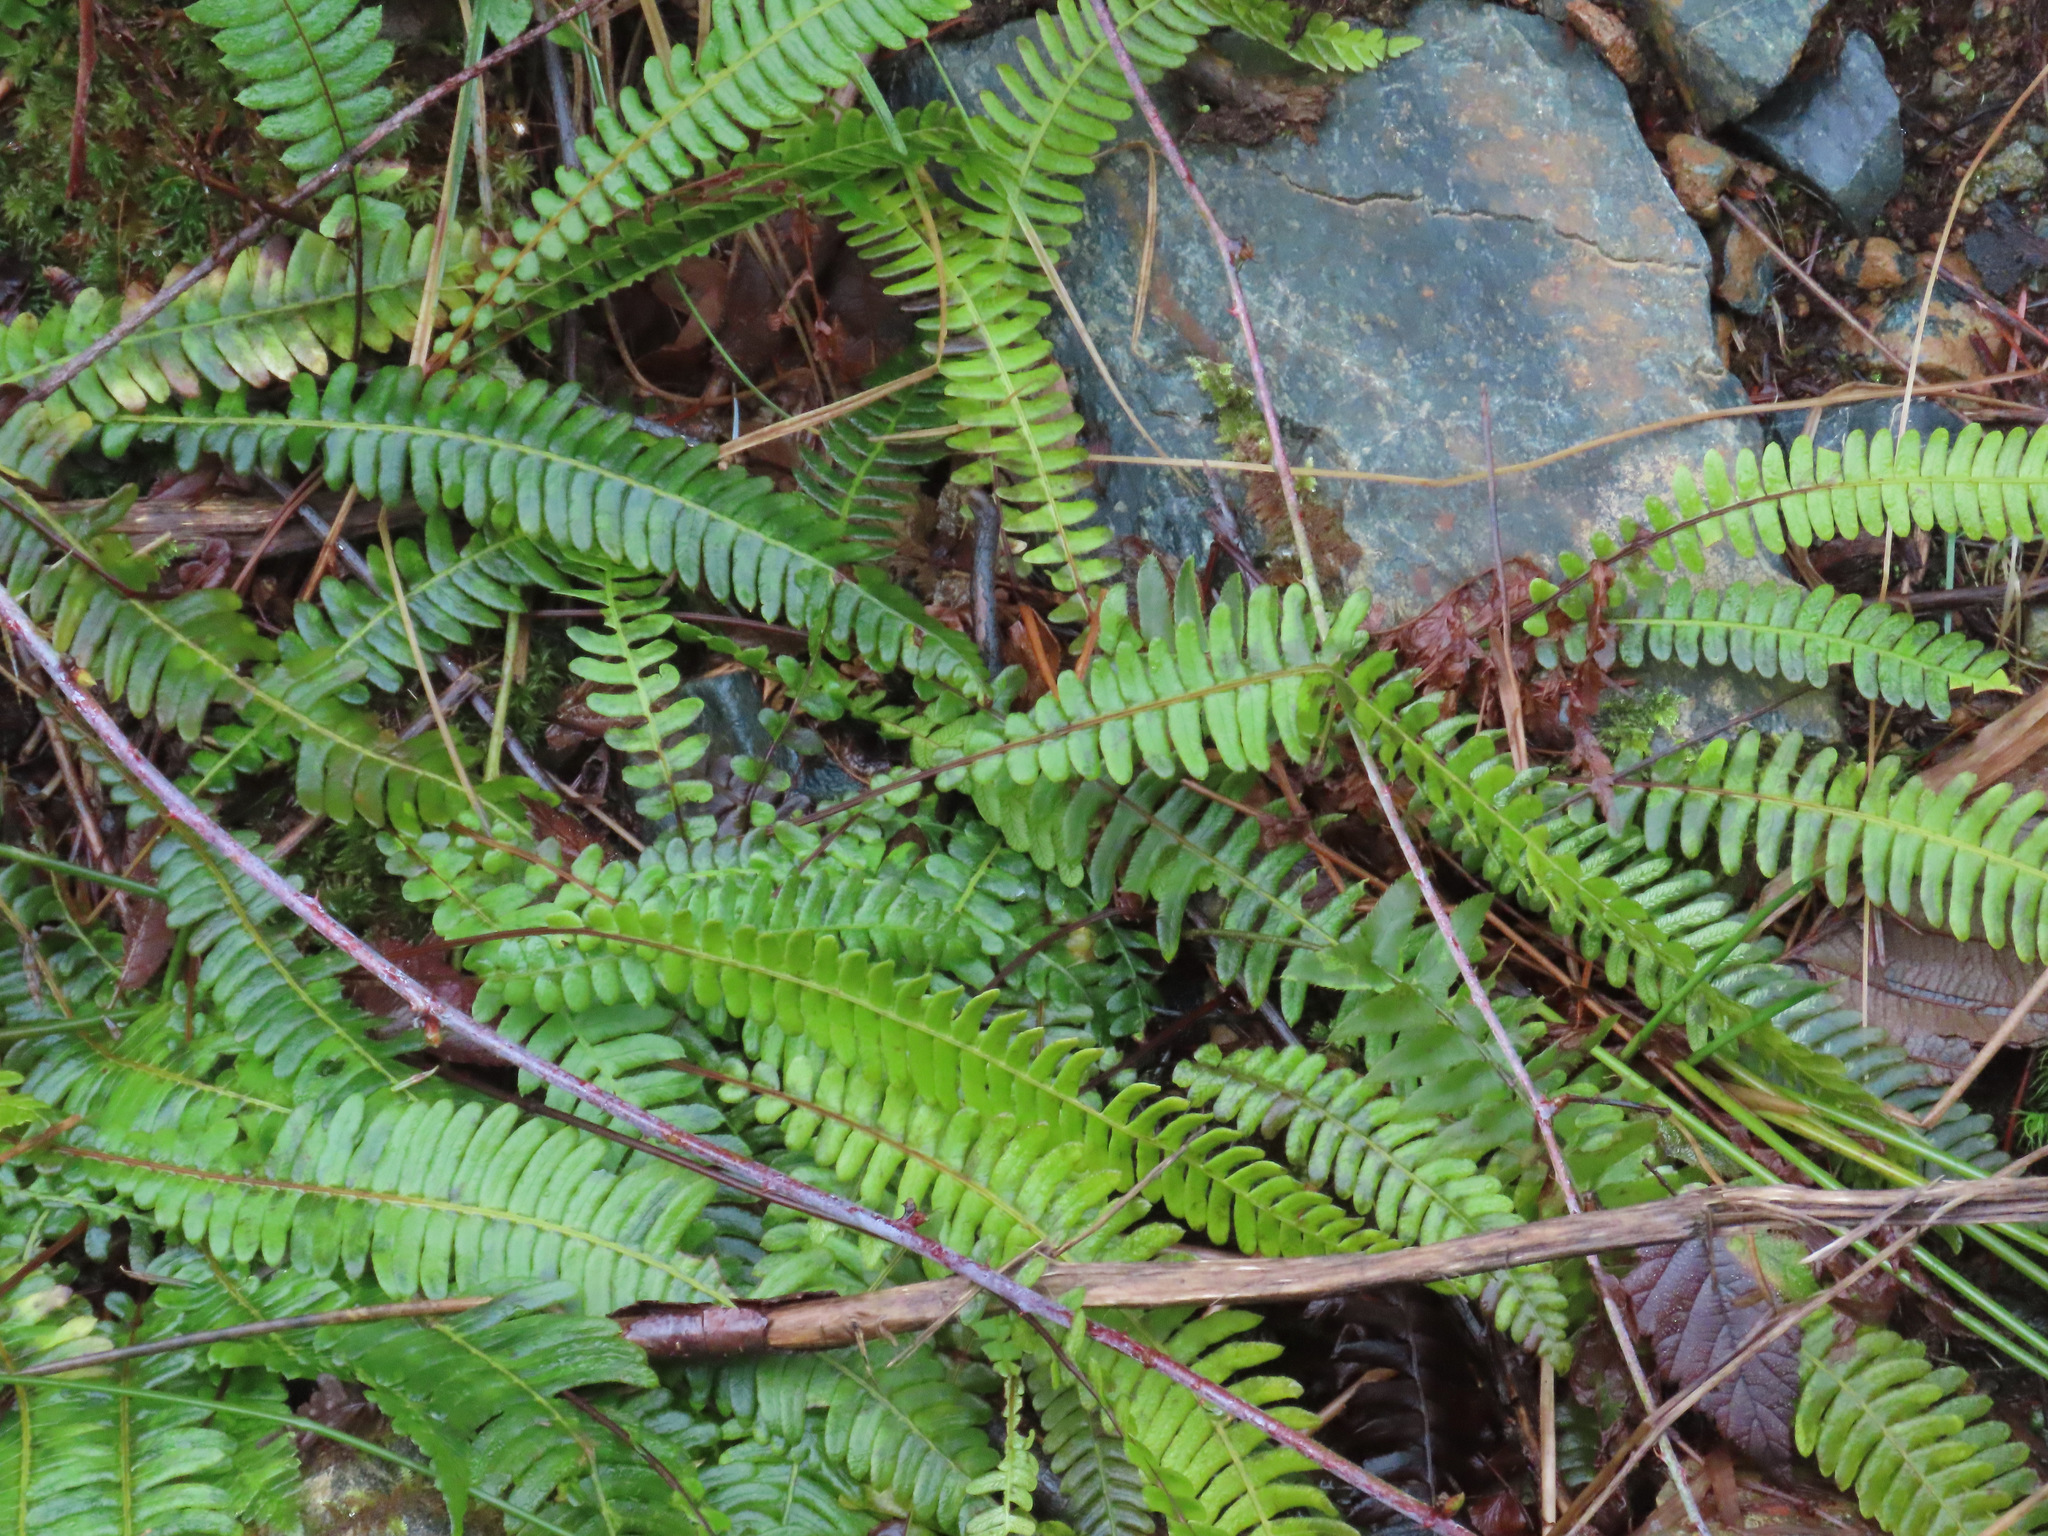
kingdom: Plantae
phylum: Tracheophyta
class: Polypodiopsida
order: Polypodiales
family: Blechnaceae
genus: Struthiopteris
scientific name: Struthiopteris spicant
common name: Deer fern
